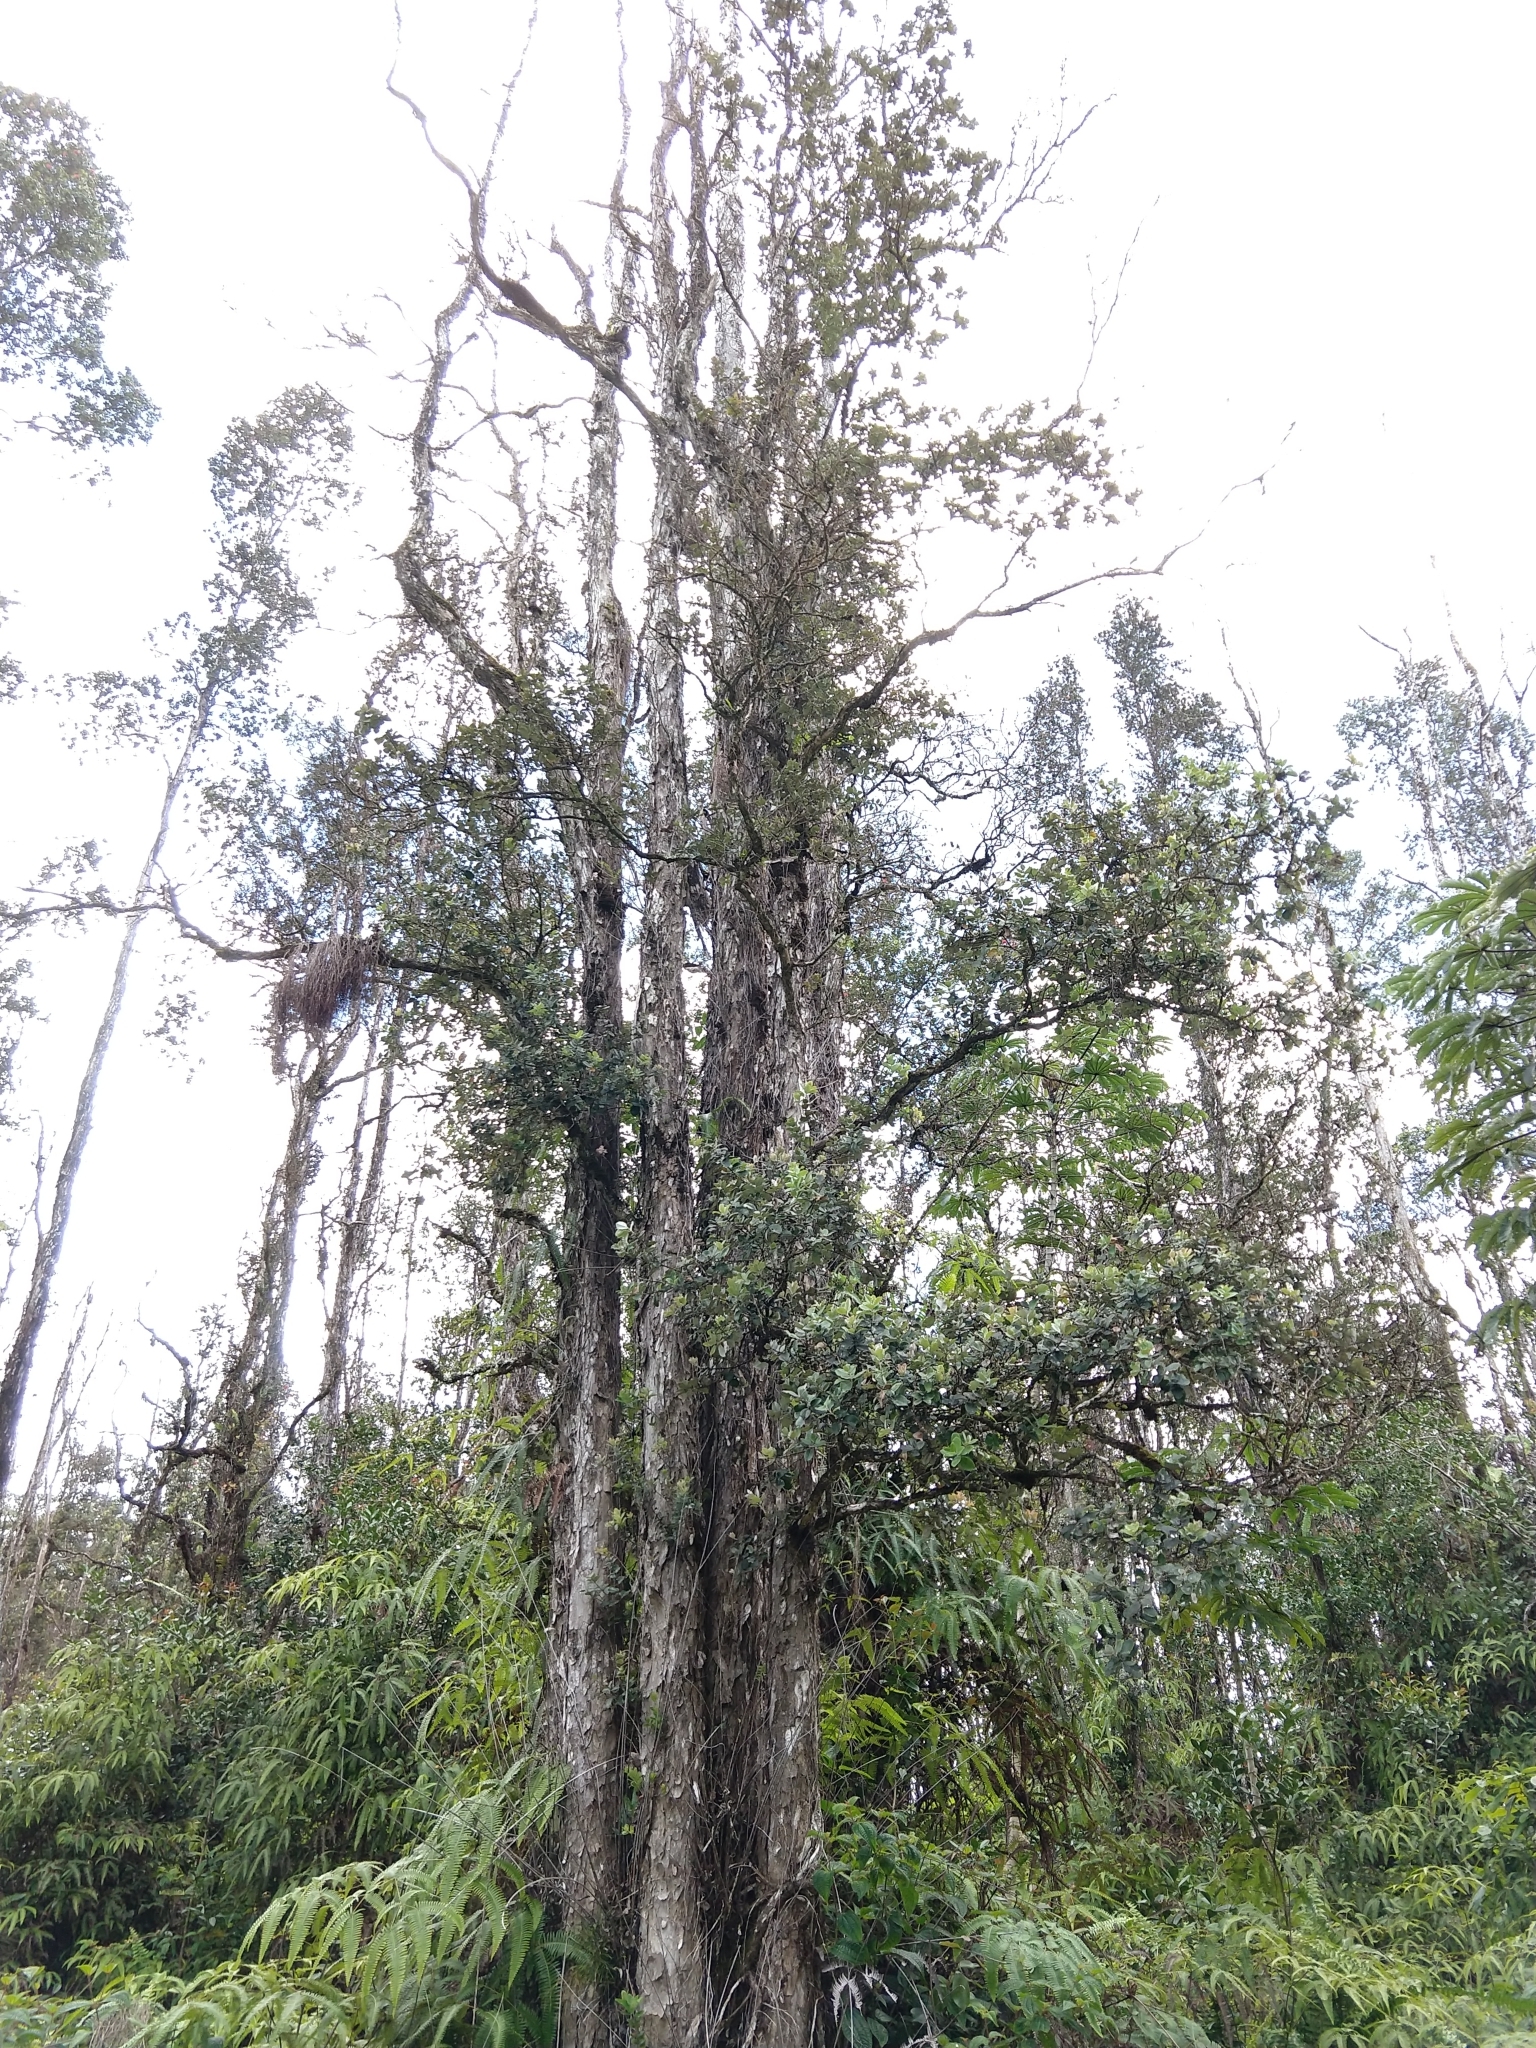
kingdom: Plantae
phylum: Tracheophyta
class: Magnoliopsida
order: Myrtales
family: Myrtaceae
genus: Metrosideros
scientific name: Metrosideros polymorpha
